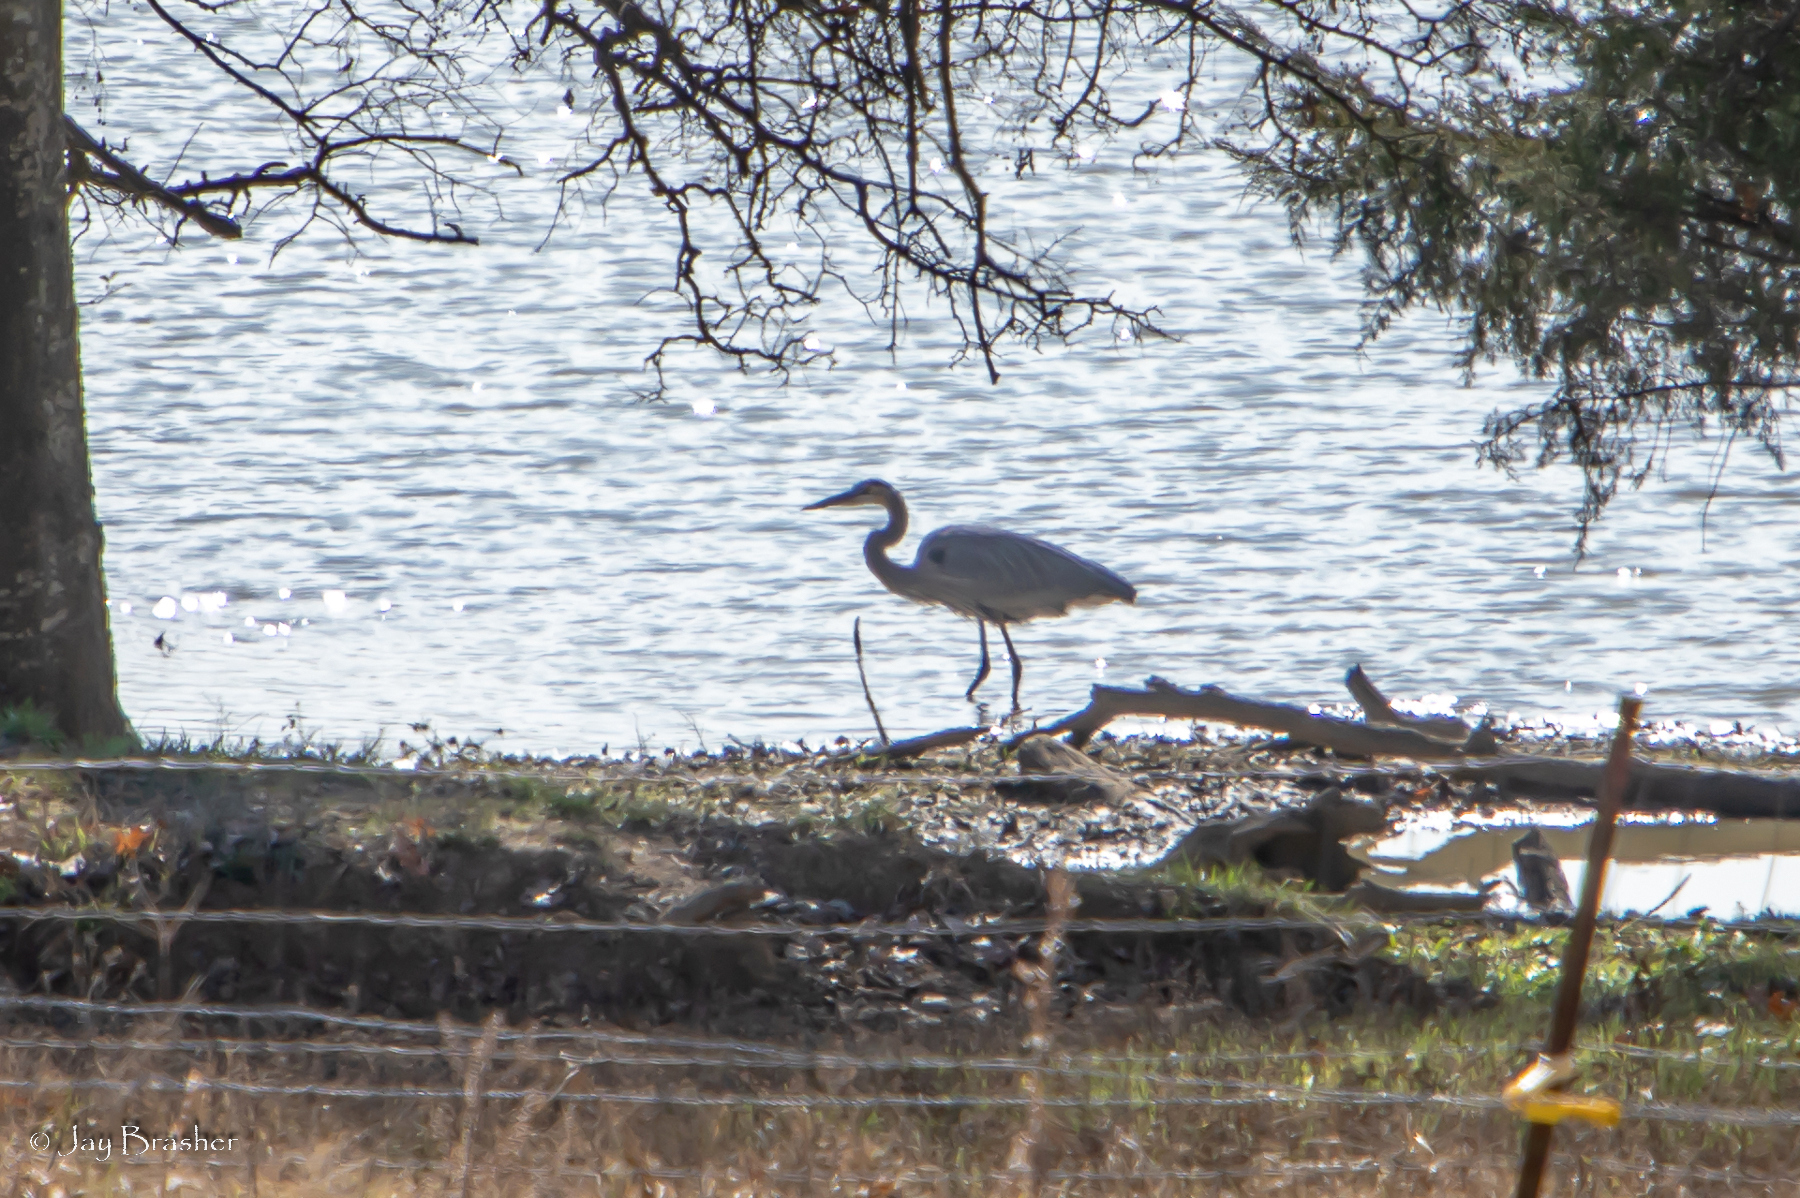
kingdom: Animalia
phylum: Chordata
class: Aves
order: Pelecaniformes
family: Ardeidae
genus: Ardea
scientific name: Ardea herodias
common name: Great blue heron
